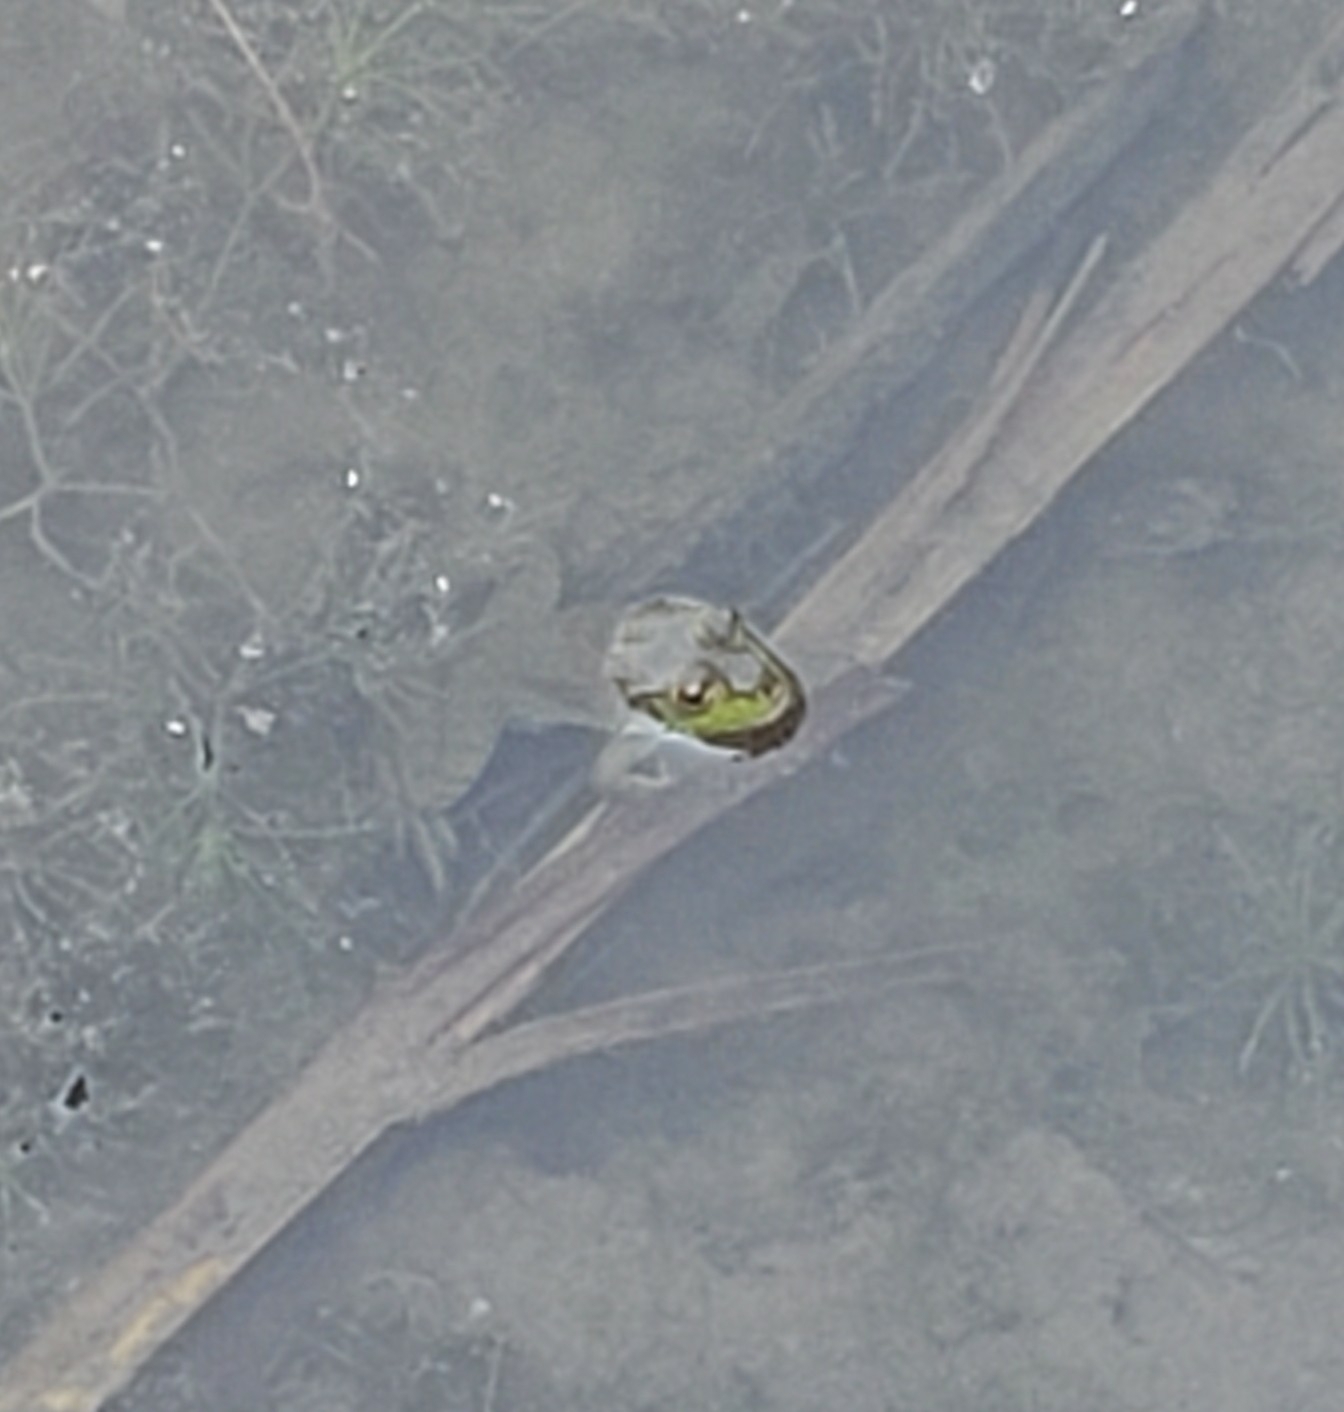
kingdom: Animalia
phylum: Chordata
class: Amphibia
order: Anura
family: Ranidae
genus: Lithobates
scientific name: Lithobates catesbeianus
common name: American bullfrog
